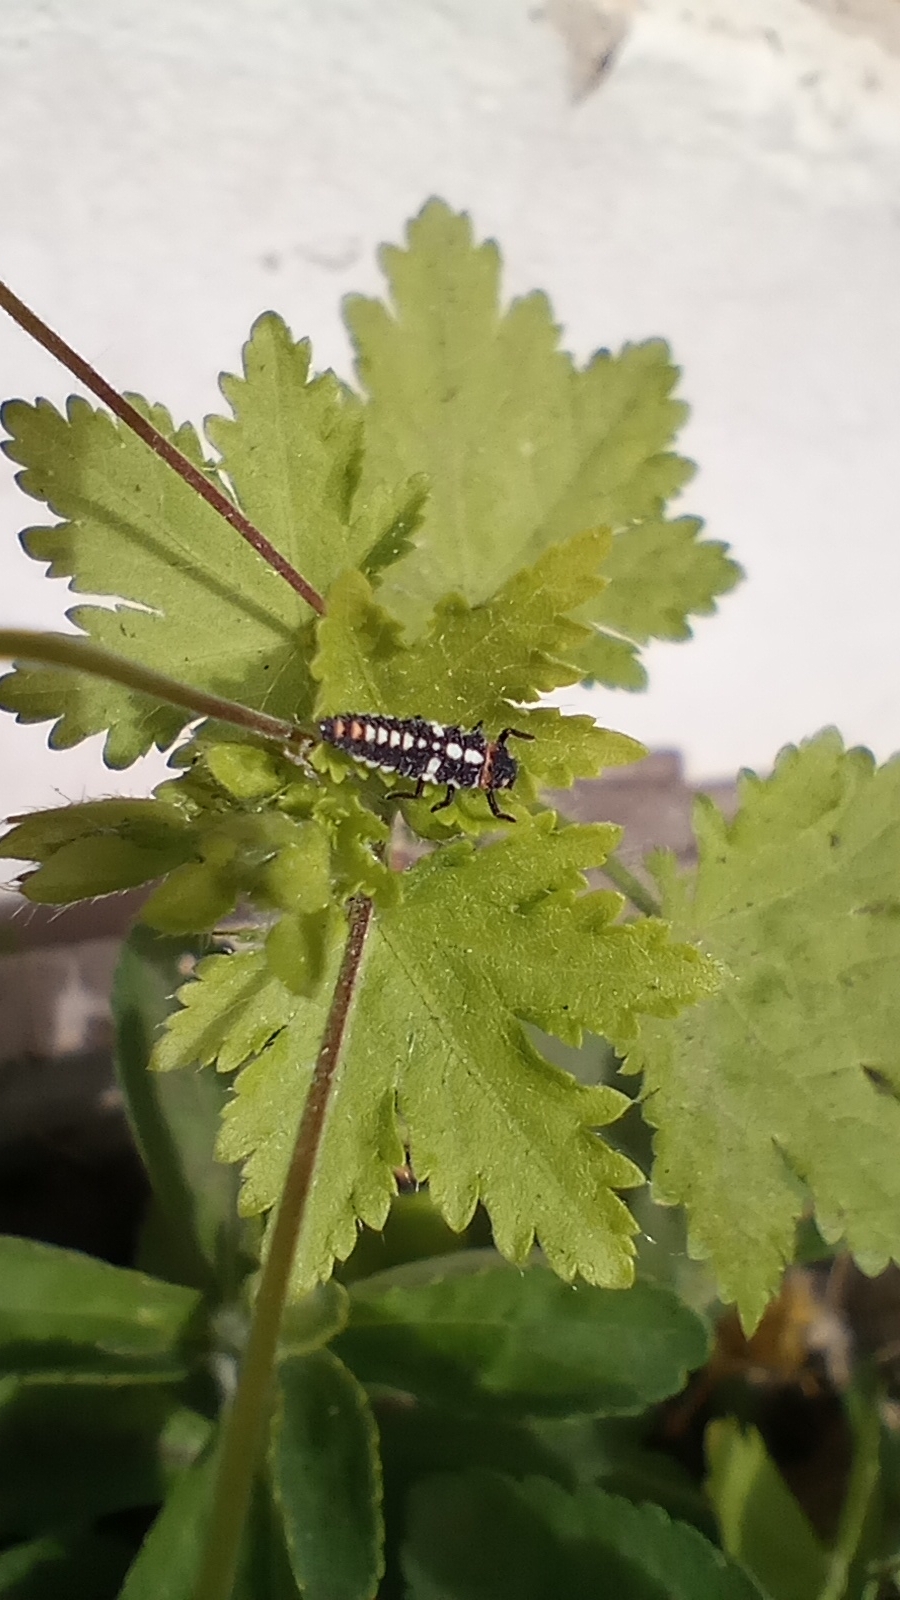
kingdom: Animalia
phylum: Arthropoda
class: Insecta
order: Coleoptera
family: Coccinellidae
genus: Eriopis
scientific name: Eriopis connexa
